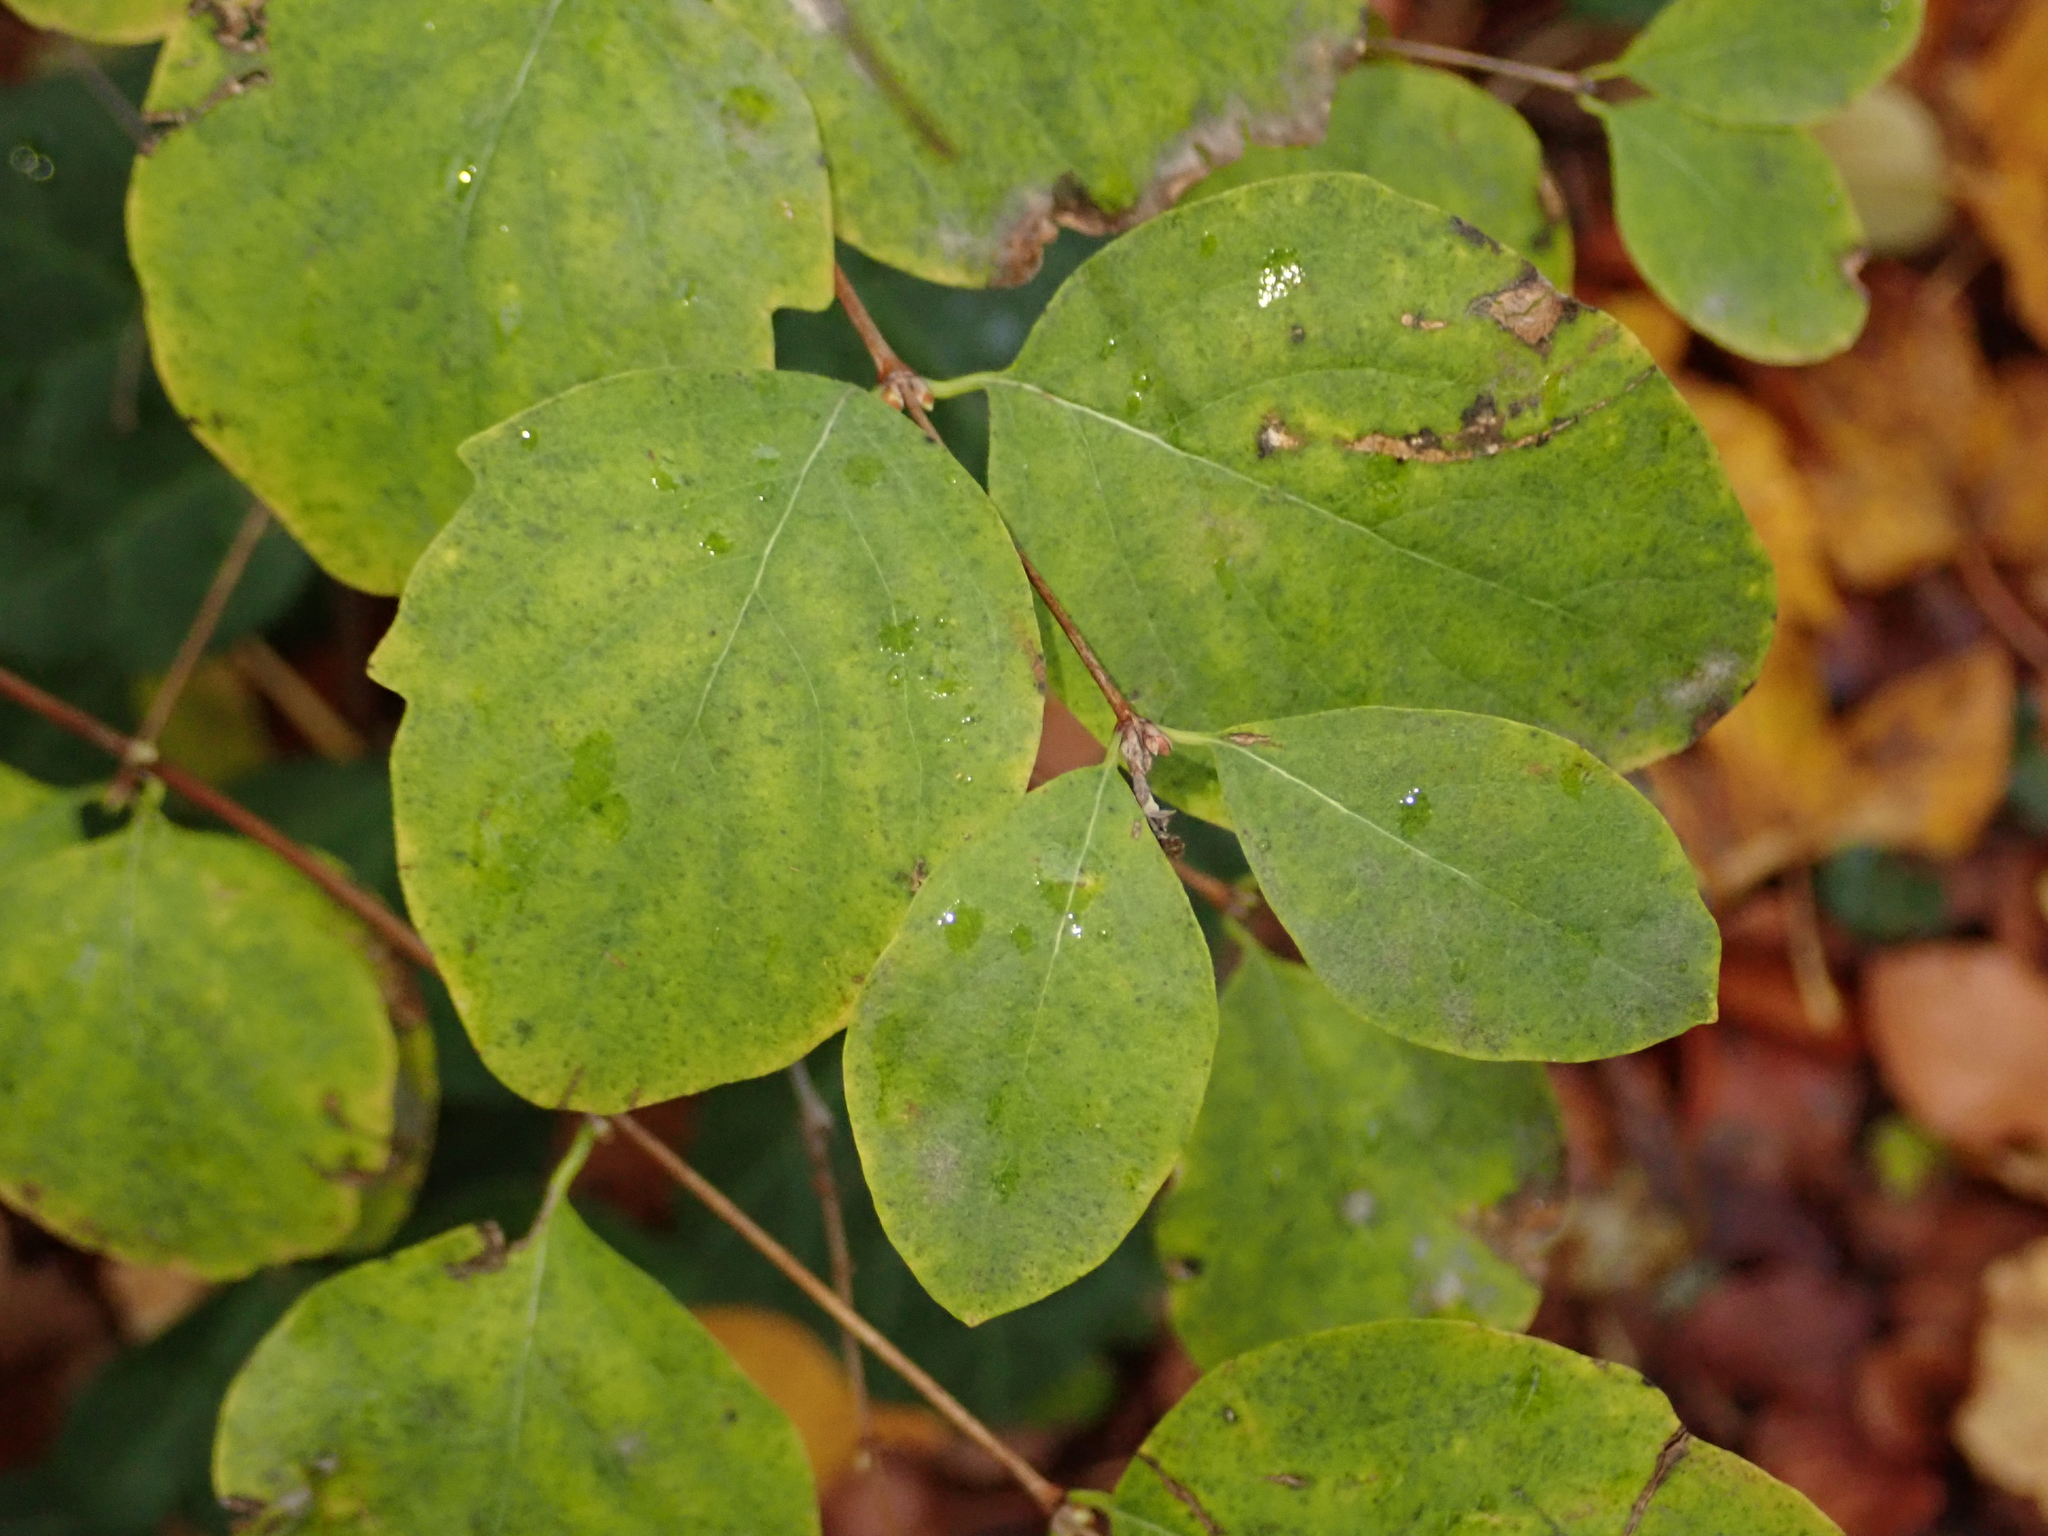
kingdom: Plantae
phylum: Tracheophyta
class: Magnoliopsida
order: Dipsacales
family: Caprifoliaceae
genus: Symphoricarpos
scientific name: Symphoricarpos albus
